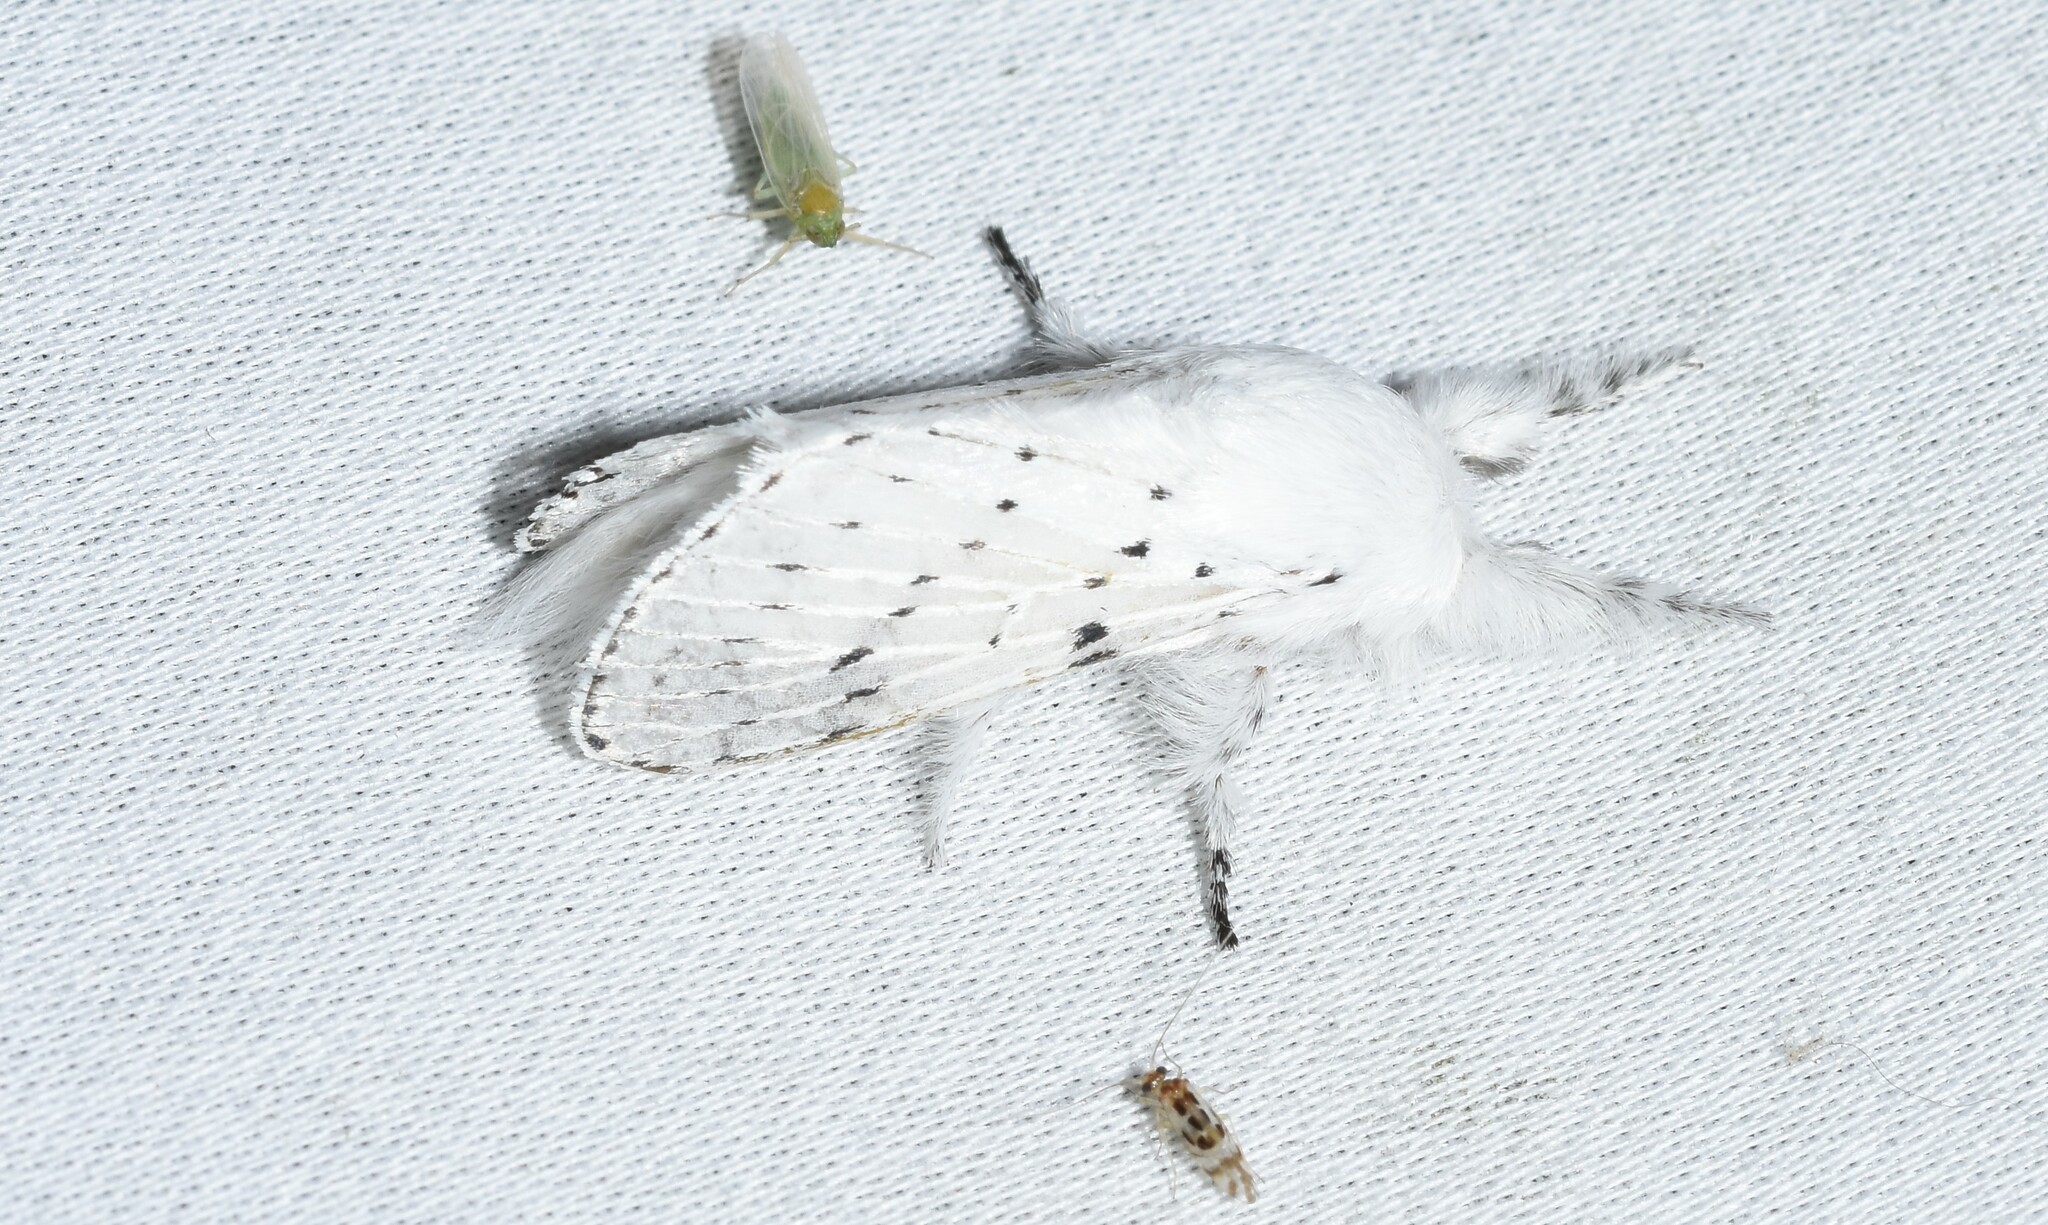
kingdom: Animalia
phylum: Arthropoda
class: Insecta
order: Lepidoptera
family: Lasiocampidae
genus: Artace
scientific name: Artace cribrarius
